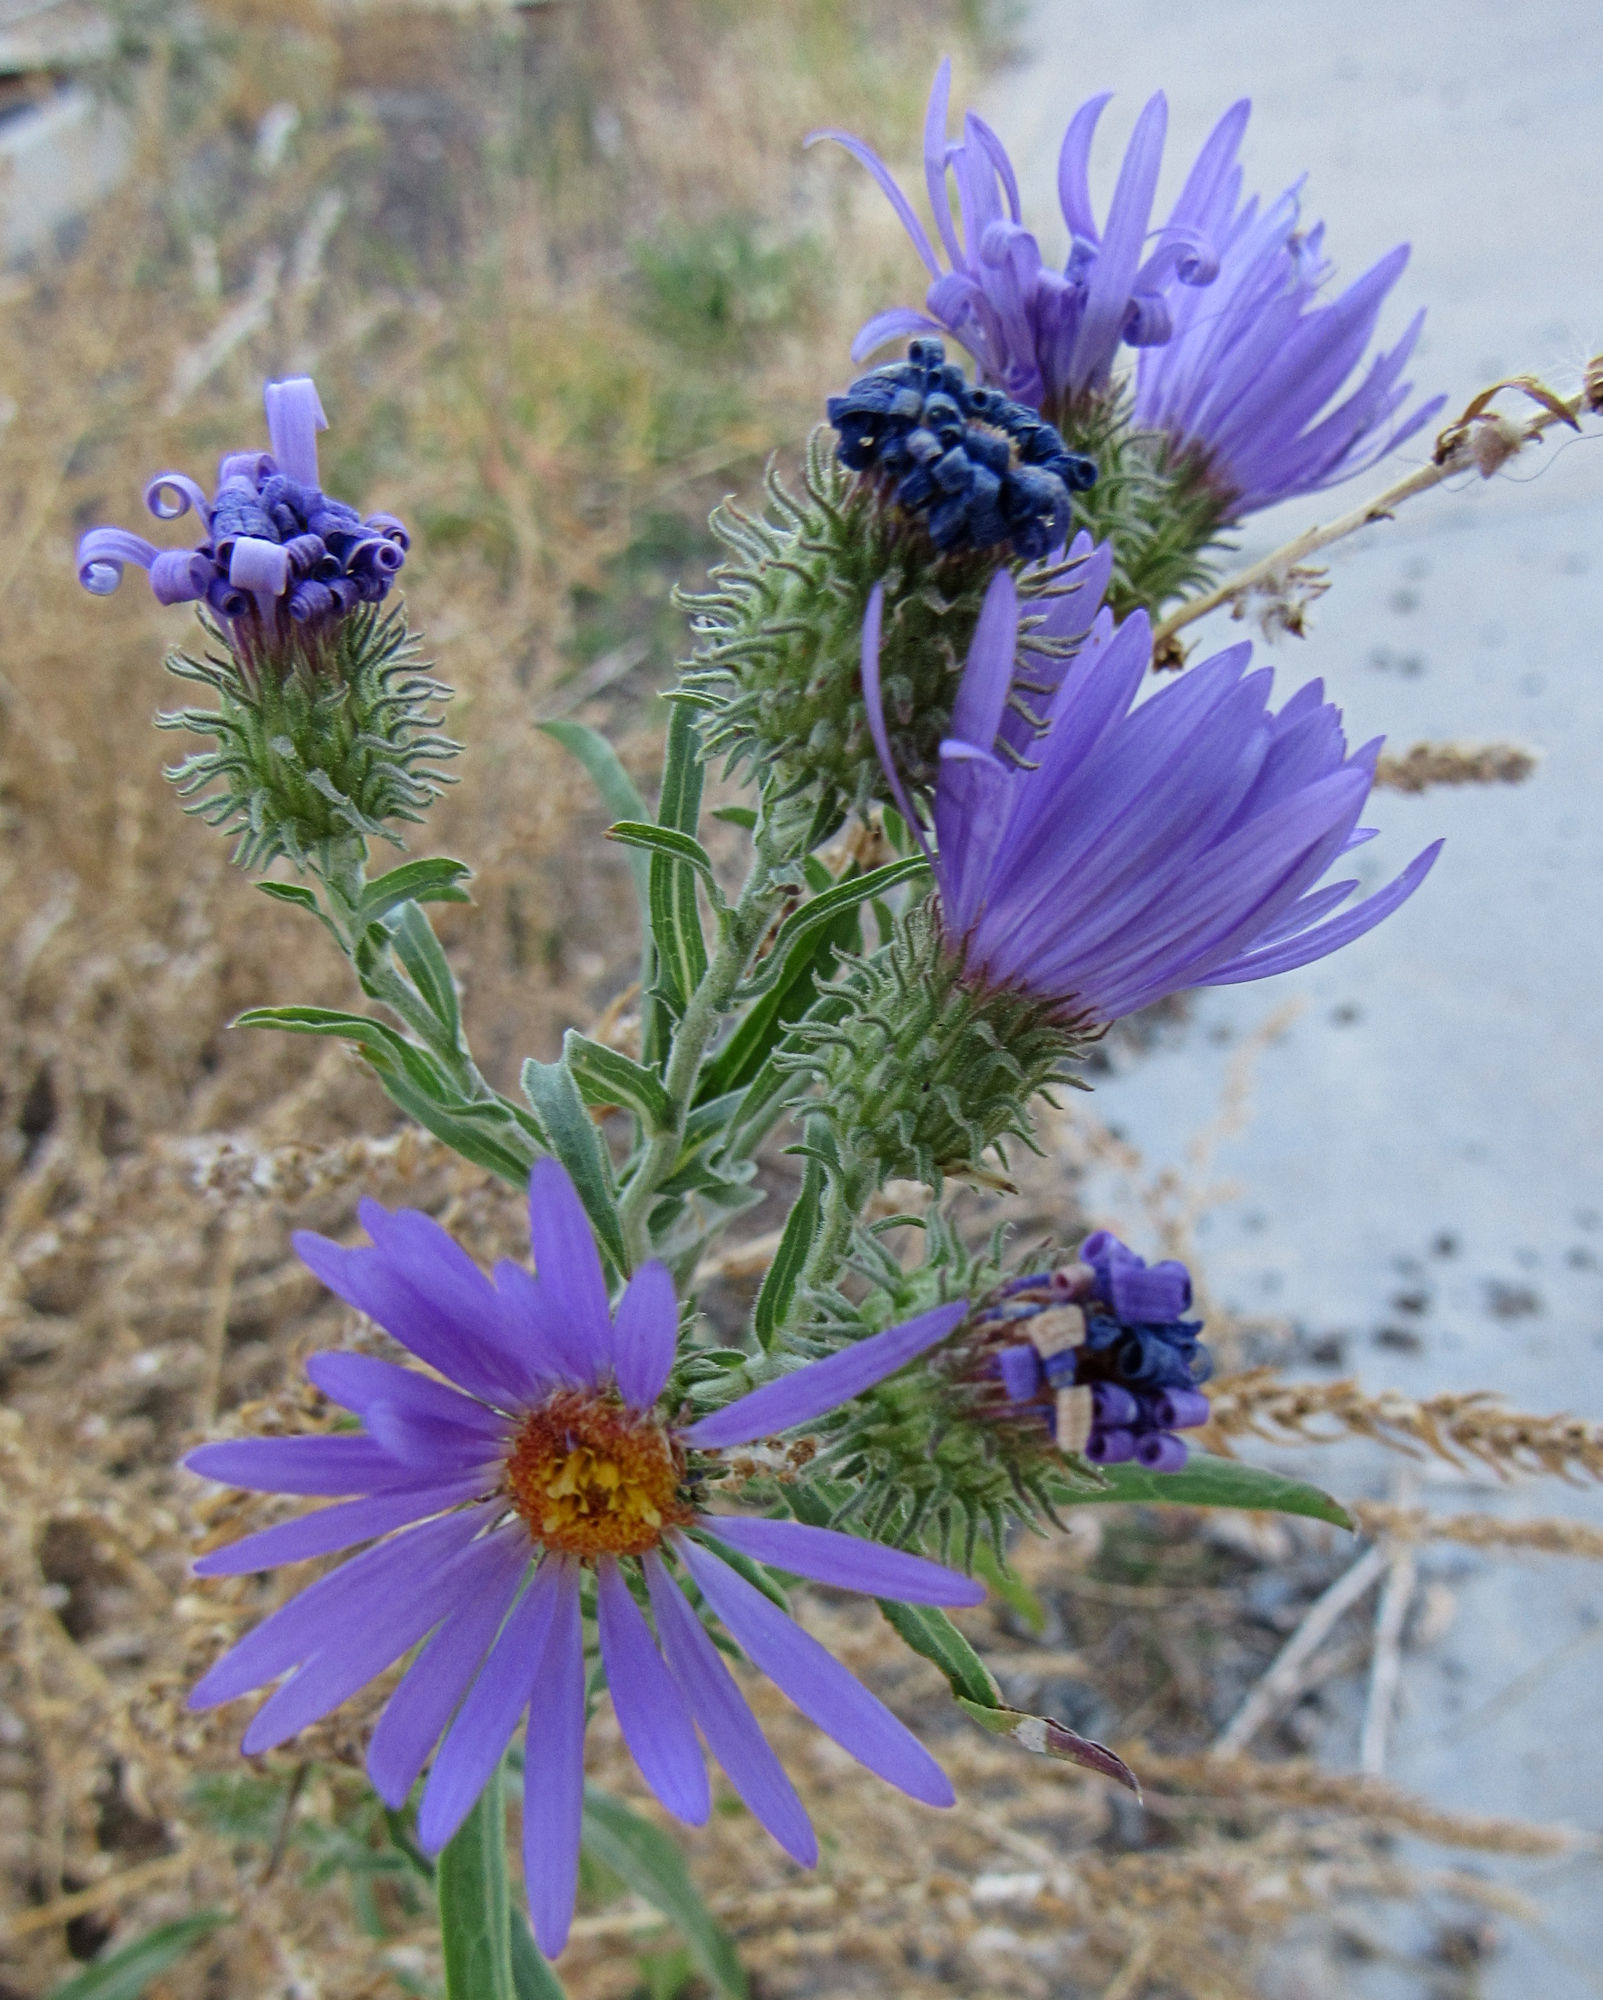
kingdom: Plantae
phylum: Tracheophyta
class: Magnoliopsida
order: Asterales
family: Asteraceae
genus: Dieteria
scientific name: Dieteria canescens
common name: Hoary-aster
